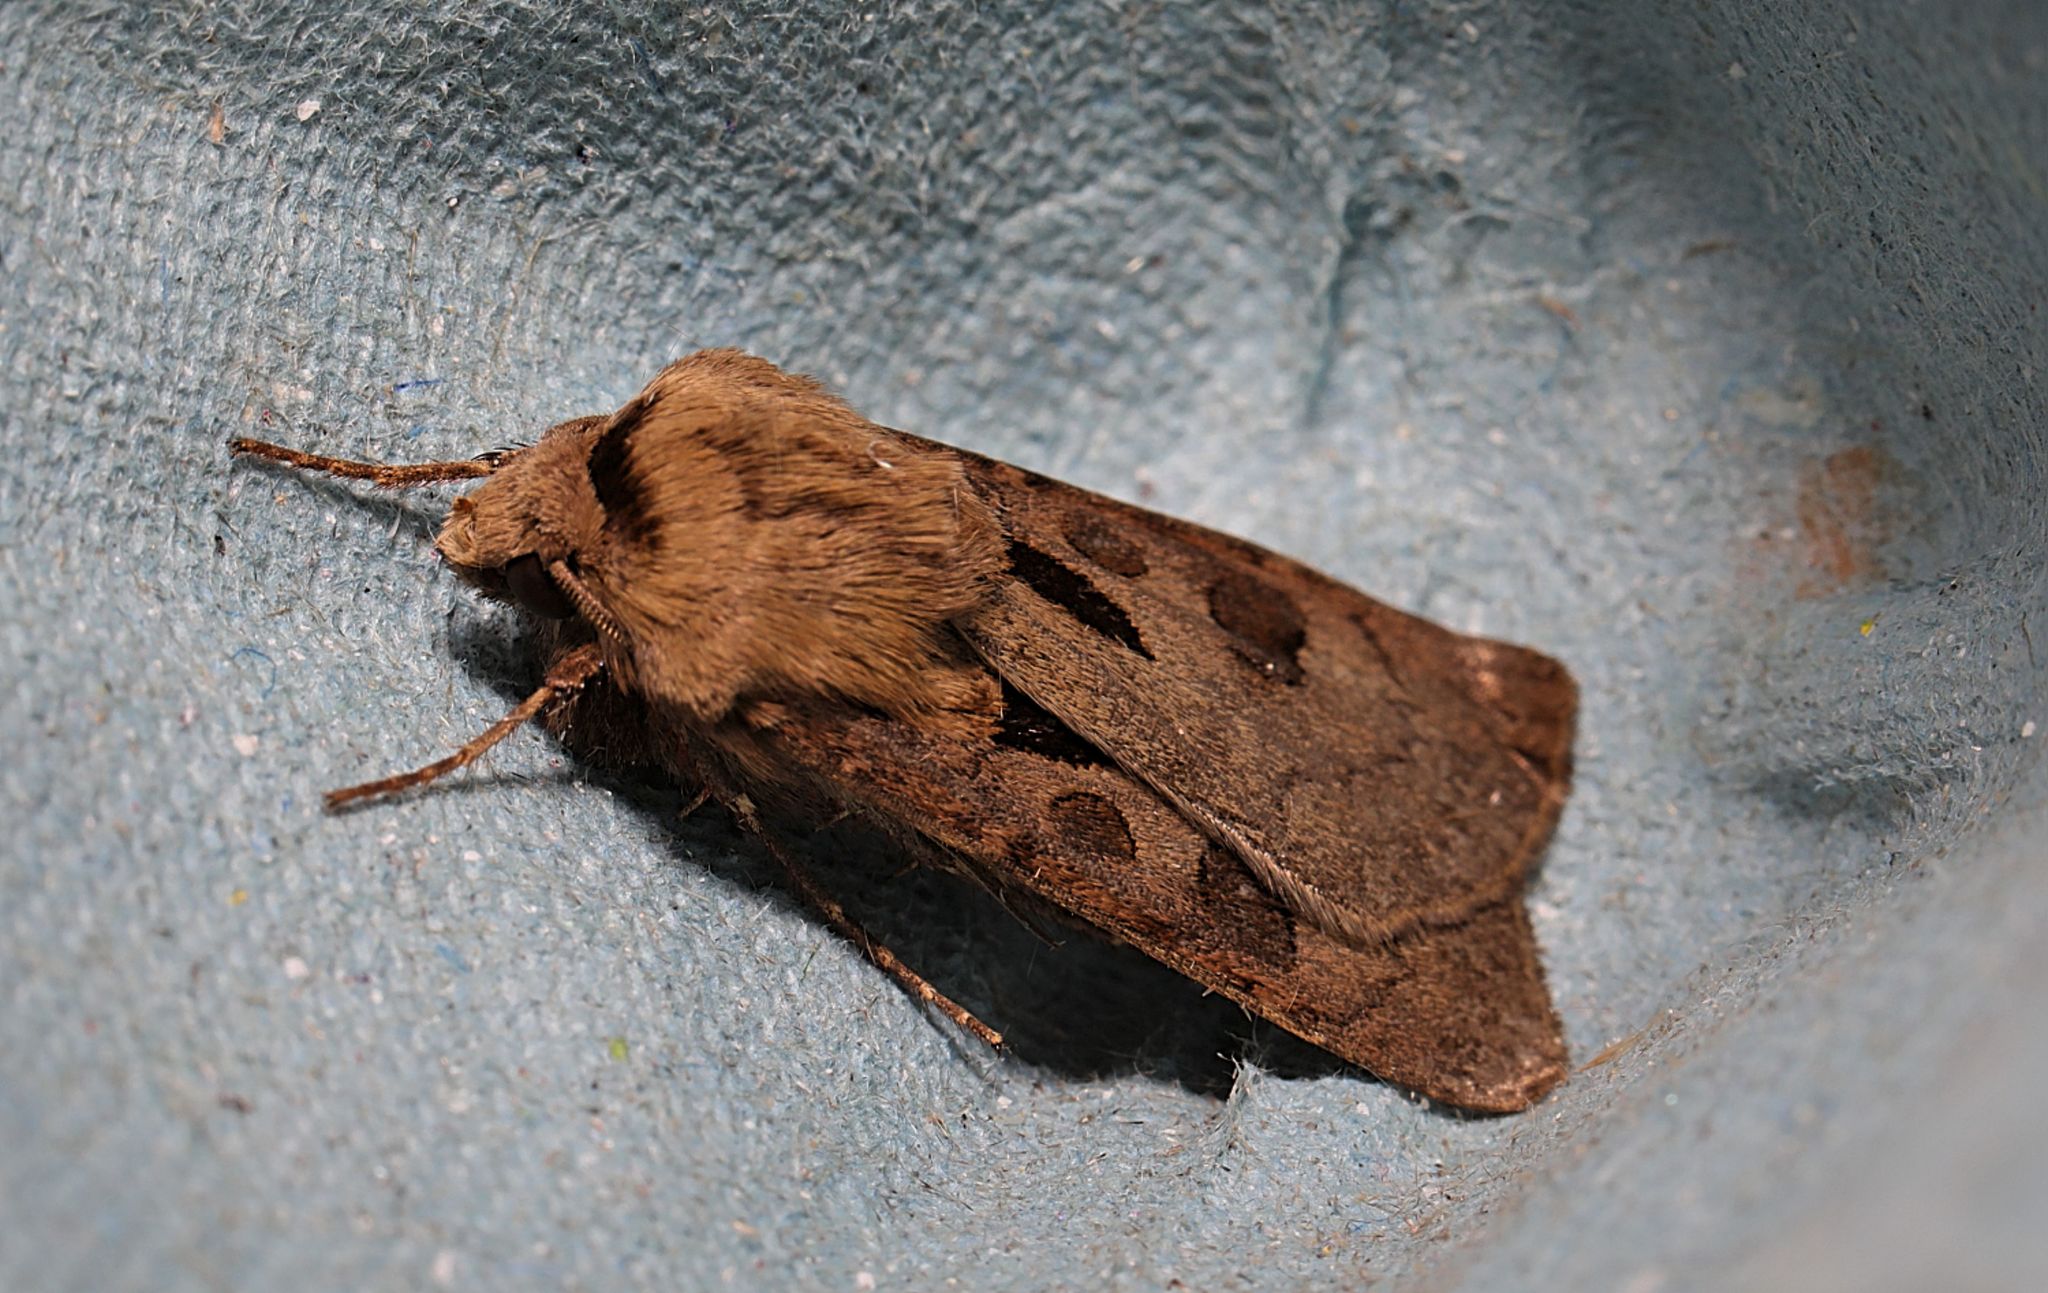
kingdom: Animalia
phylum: Arthropoda
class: Insecta
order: Lepidoptera
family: Noctuidae
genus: Agrotis
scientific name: Agrotis exclamationis
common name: Heart and dart
